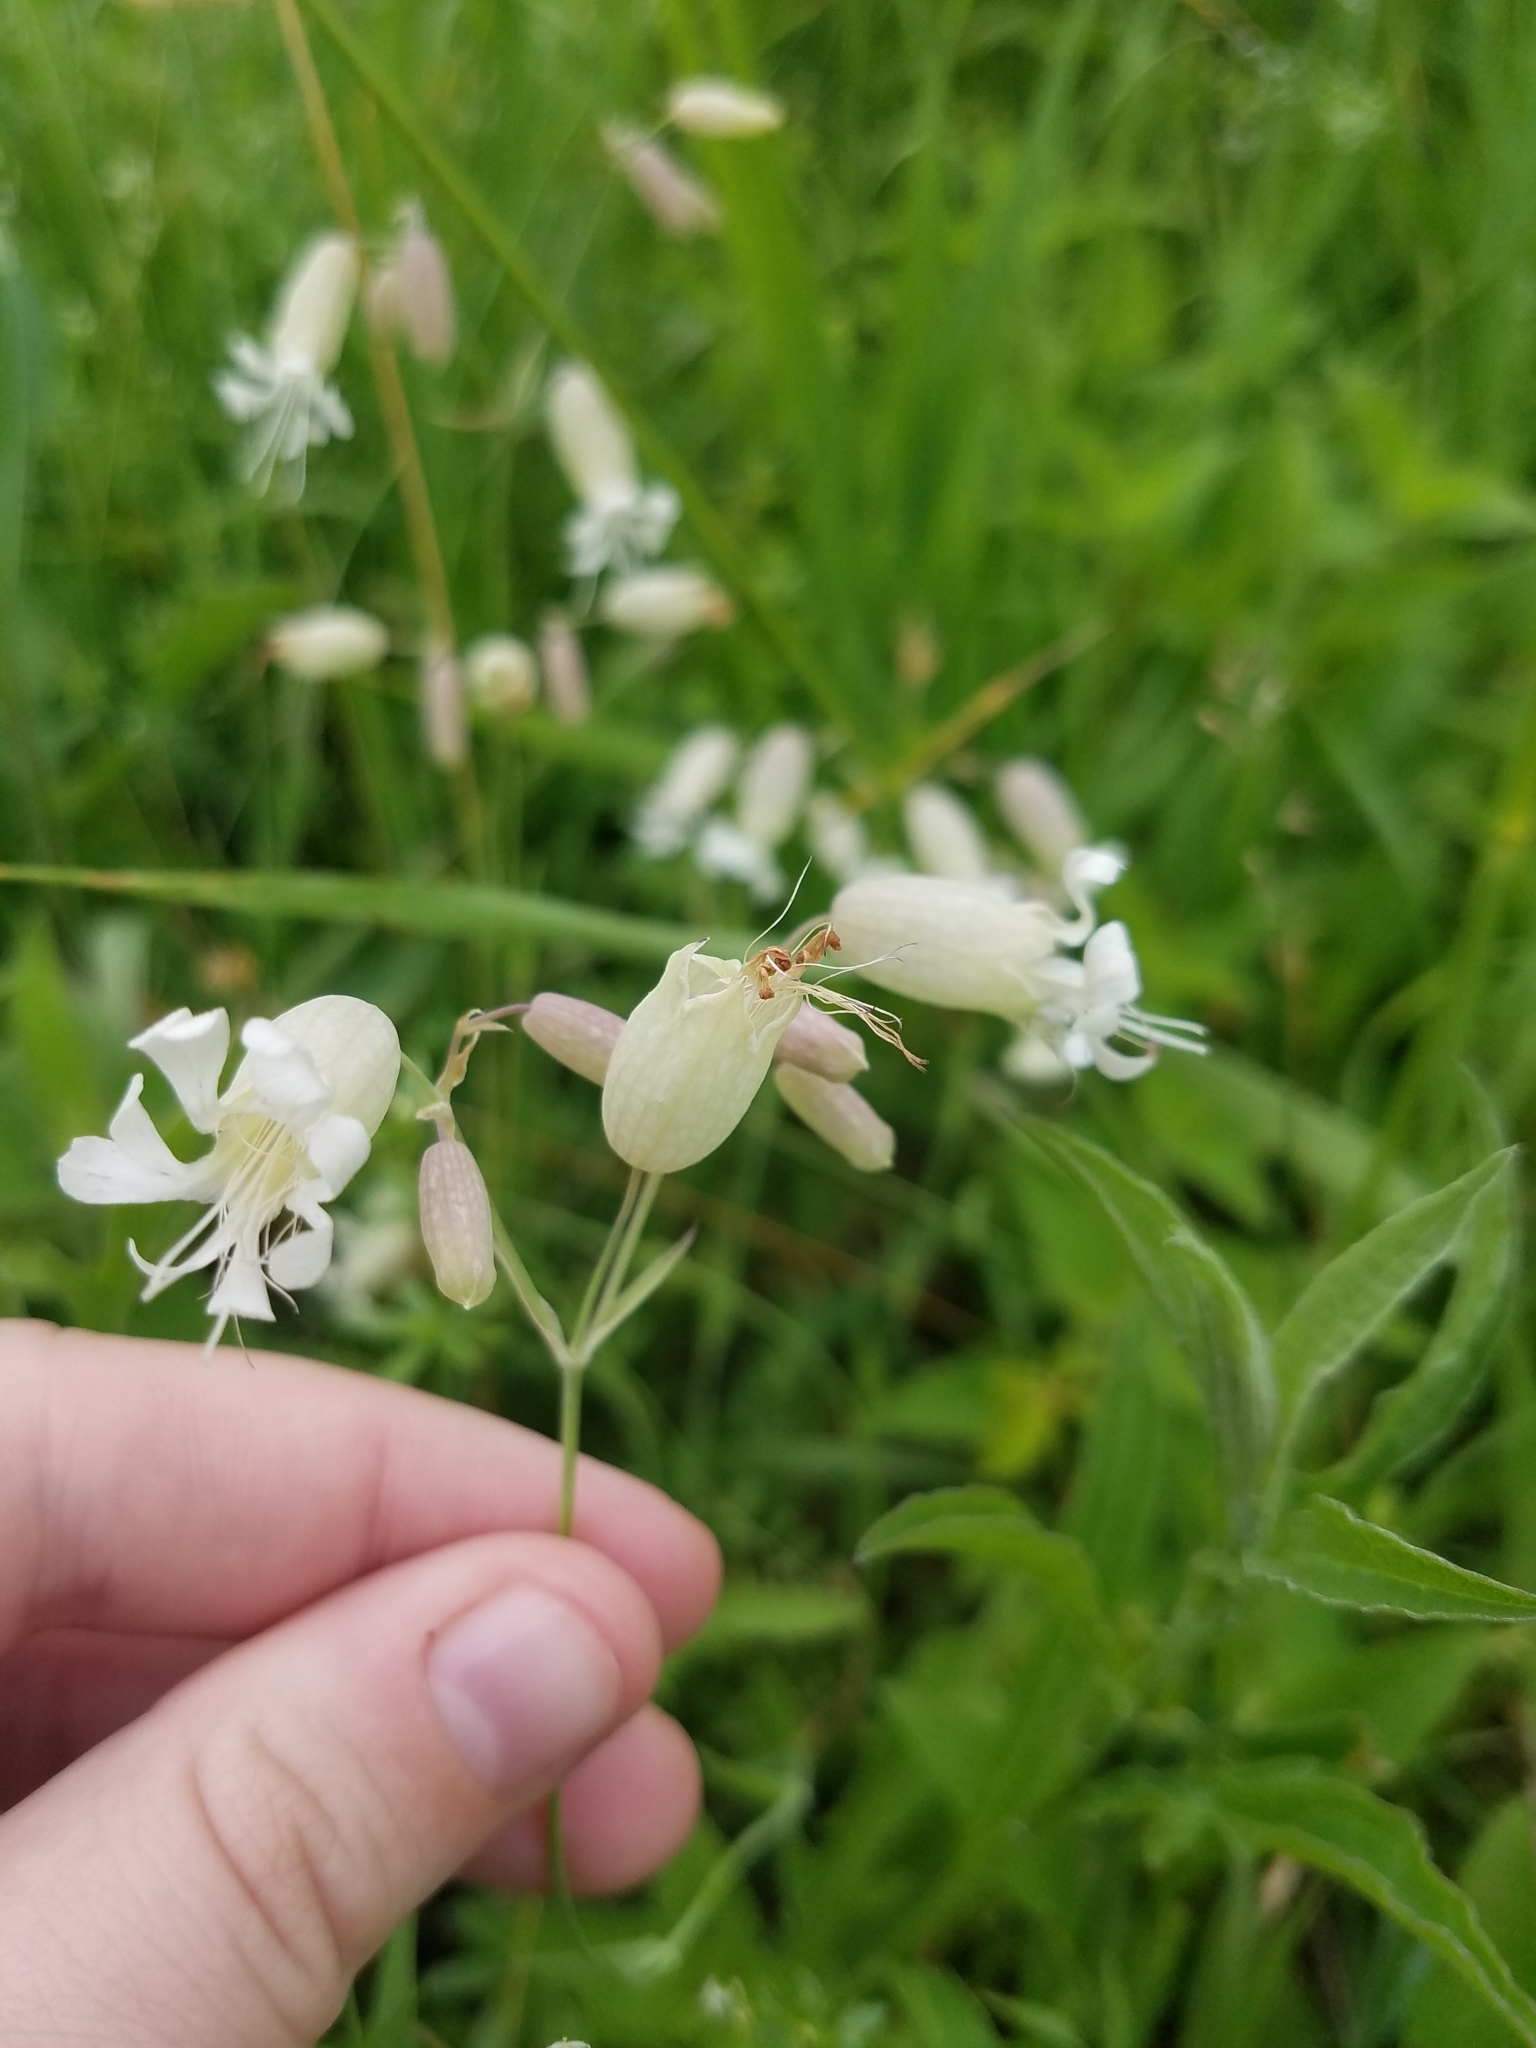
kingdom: Plantae
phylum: Tracheophyta
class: Magnoliopsida
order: Caryophyllales
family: Caryophyllaceae
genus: Silene
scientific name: Silene vulgaris
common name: Bladder campion
